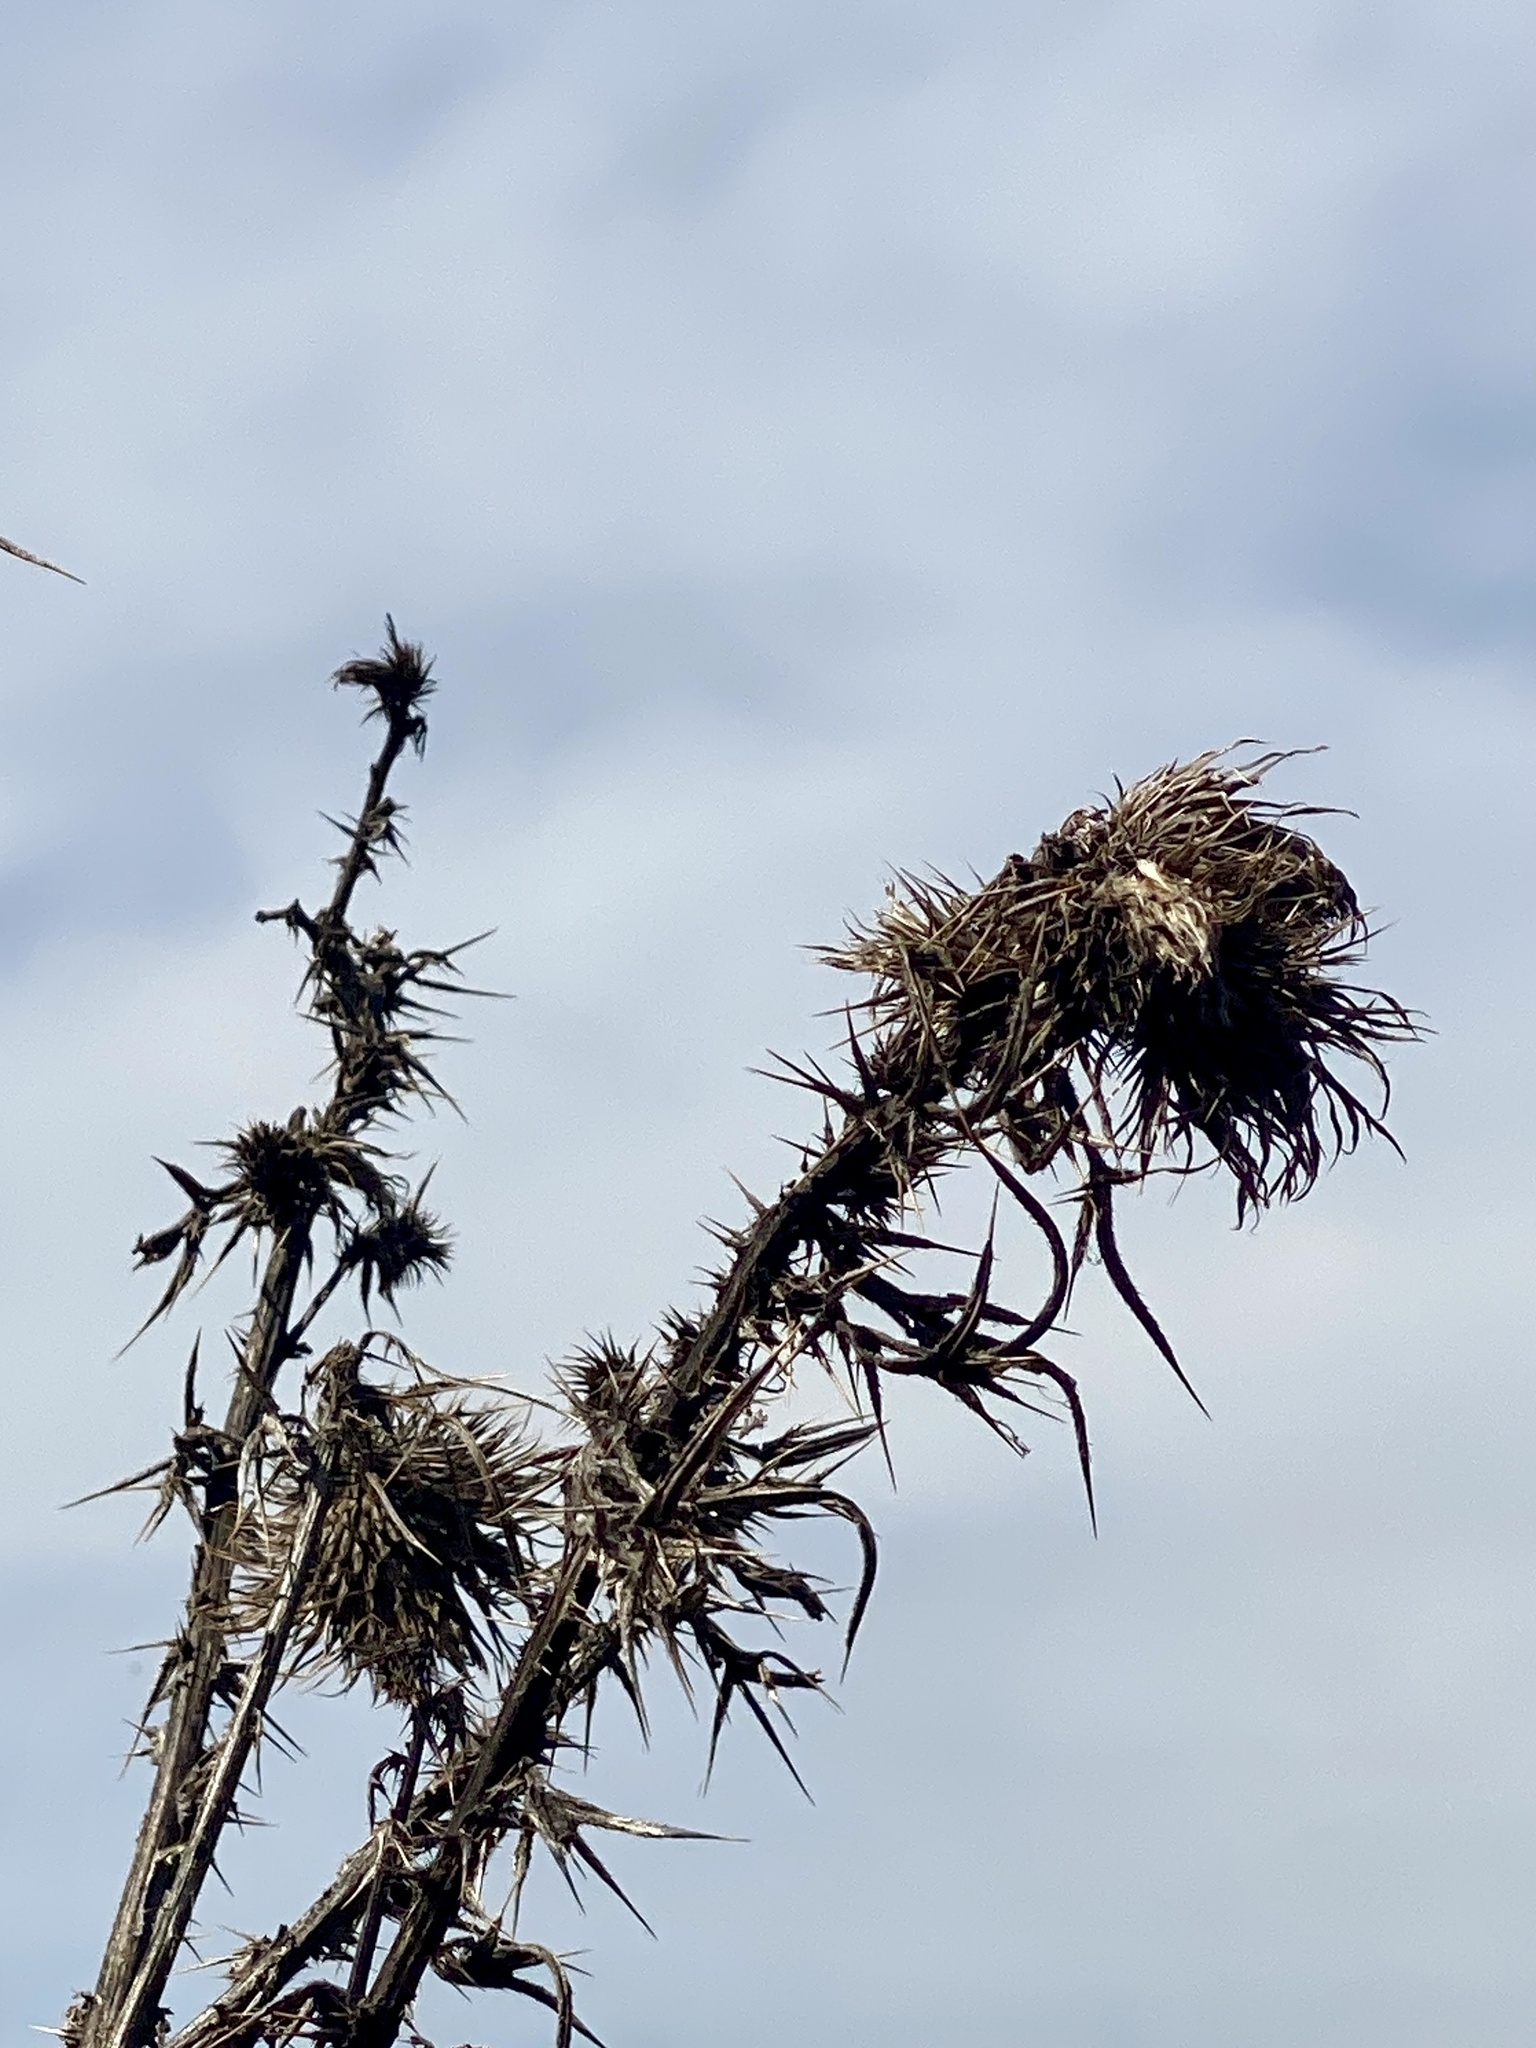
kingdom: Plantae
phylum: Tracheophyta
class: Magnoliopsida
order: Asterales
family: Asteraceae
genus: Cirsium
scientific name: Cirsium vulgare
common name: Bull thistle
